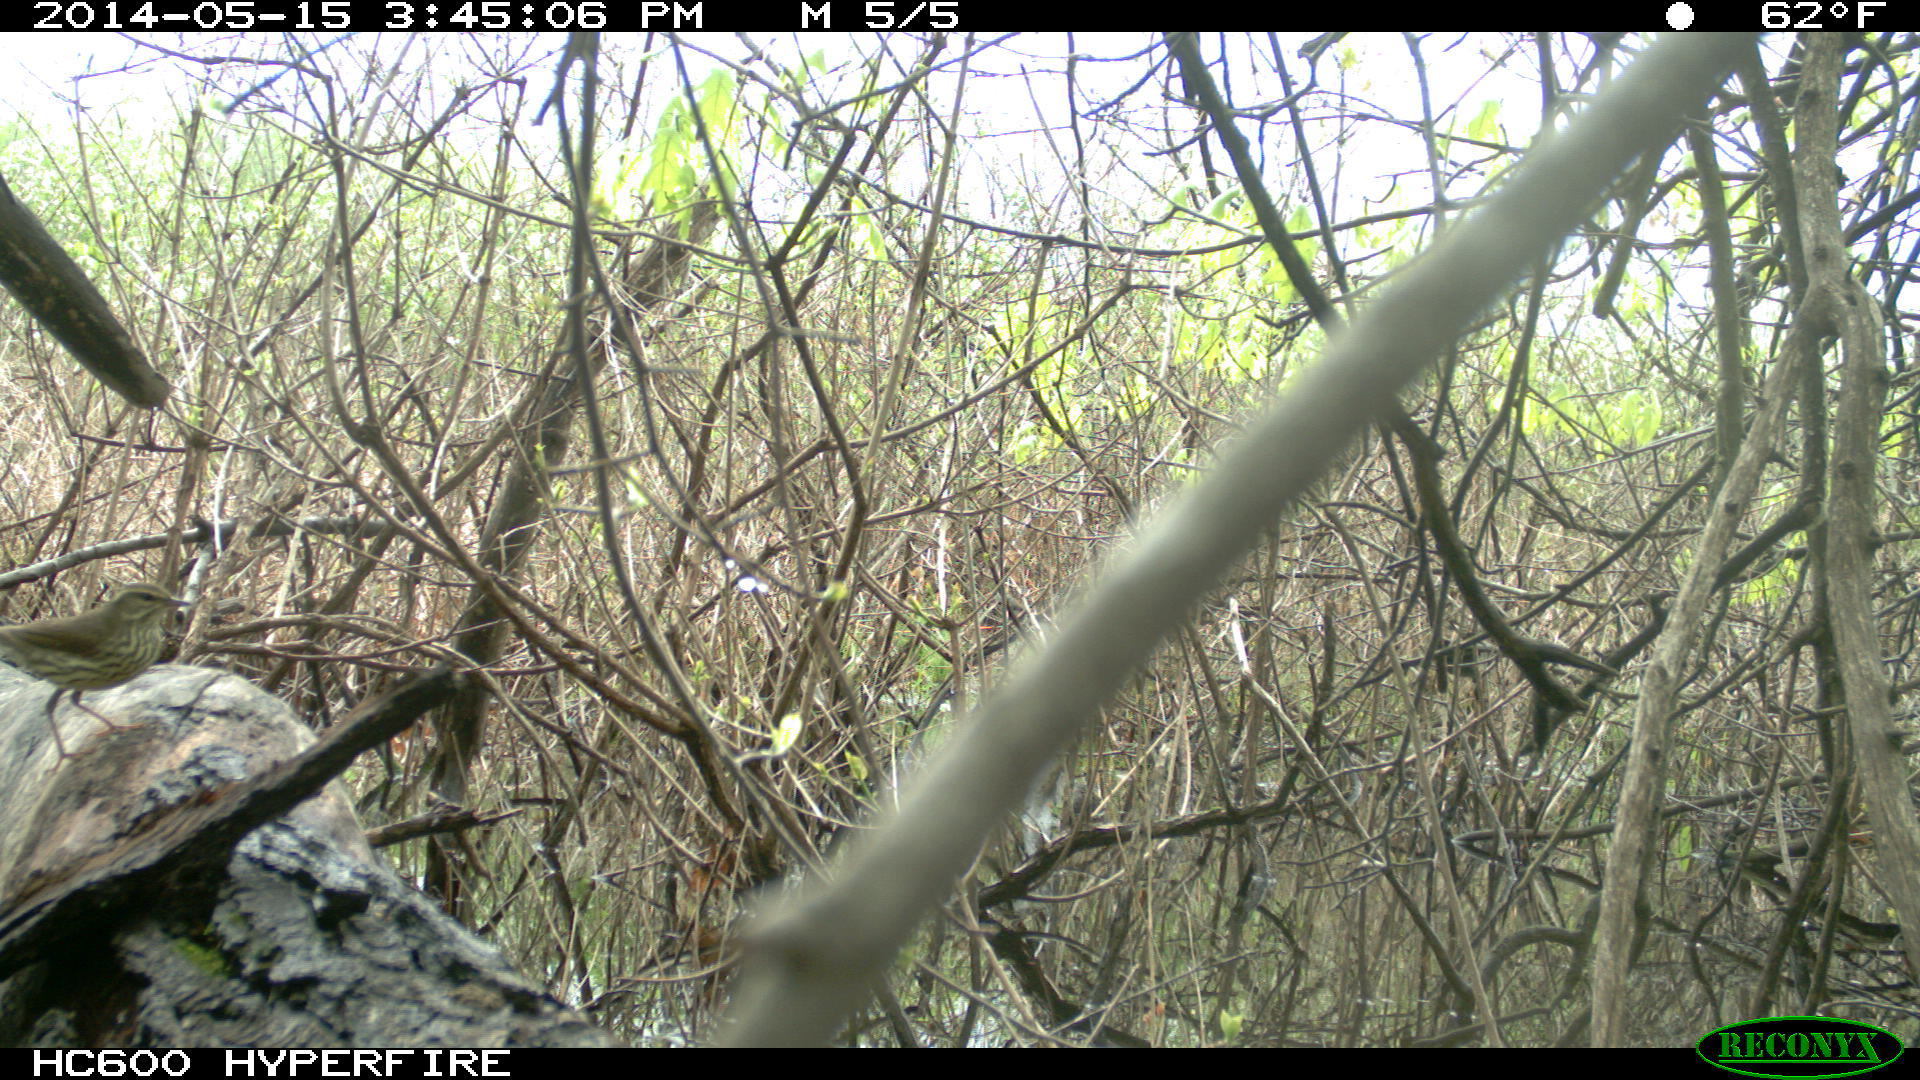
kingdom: Animalia
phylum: Chordata
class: Aves
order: Passeriformes
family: Parulidae
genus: Parkesia
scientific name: Parkesia noveboracensis
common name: Northern waterthrush
